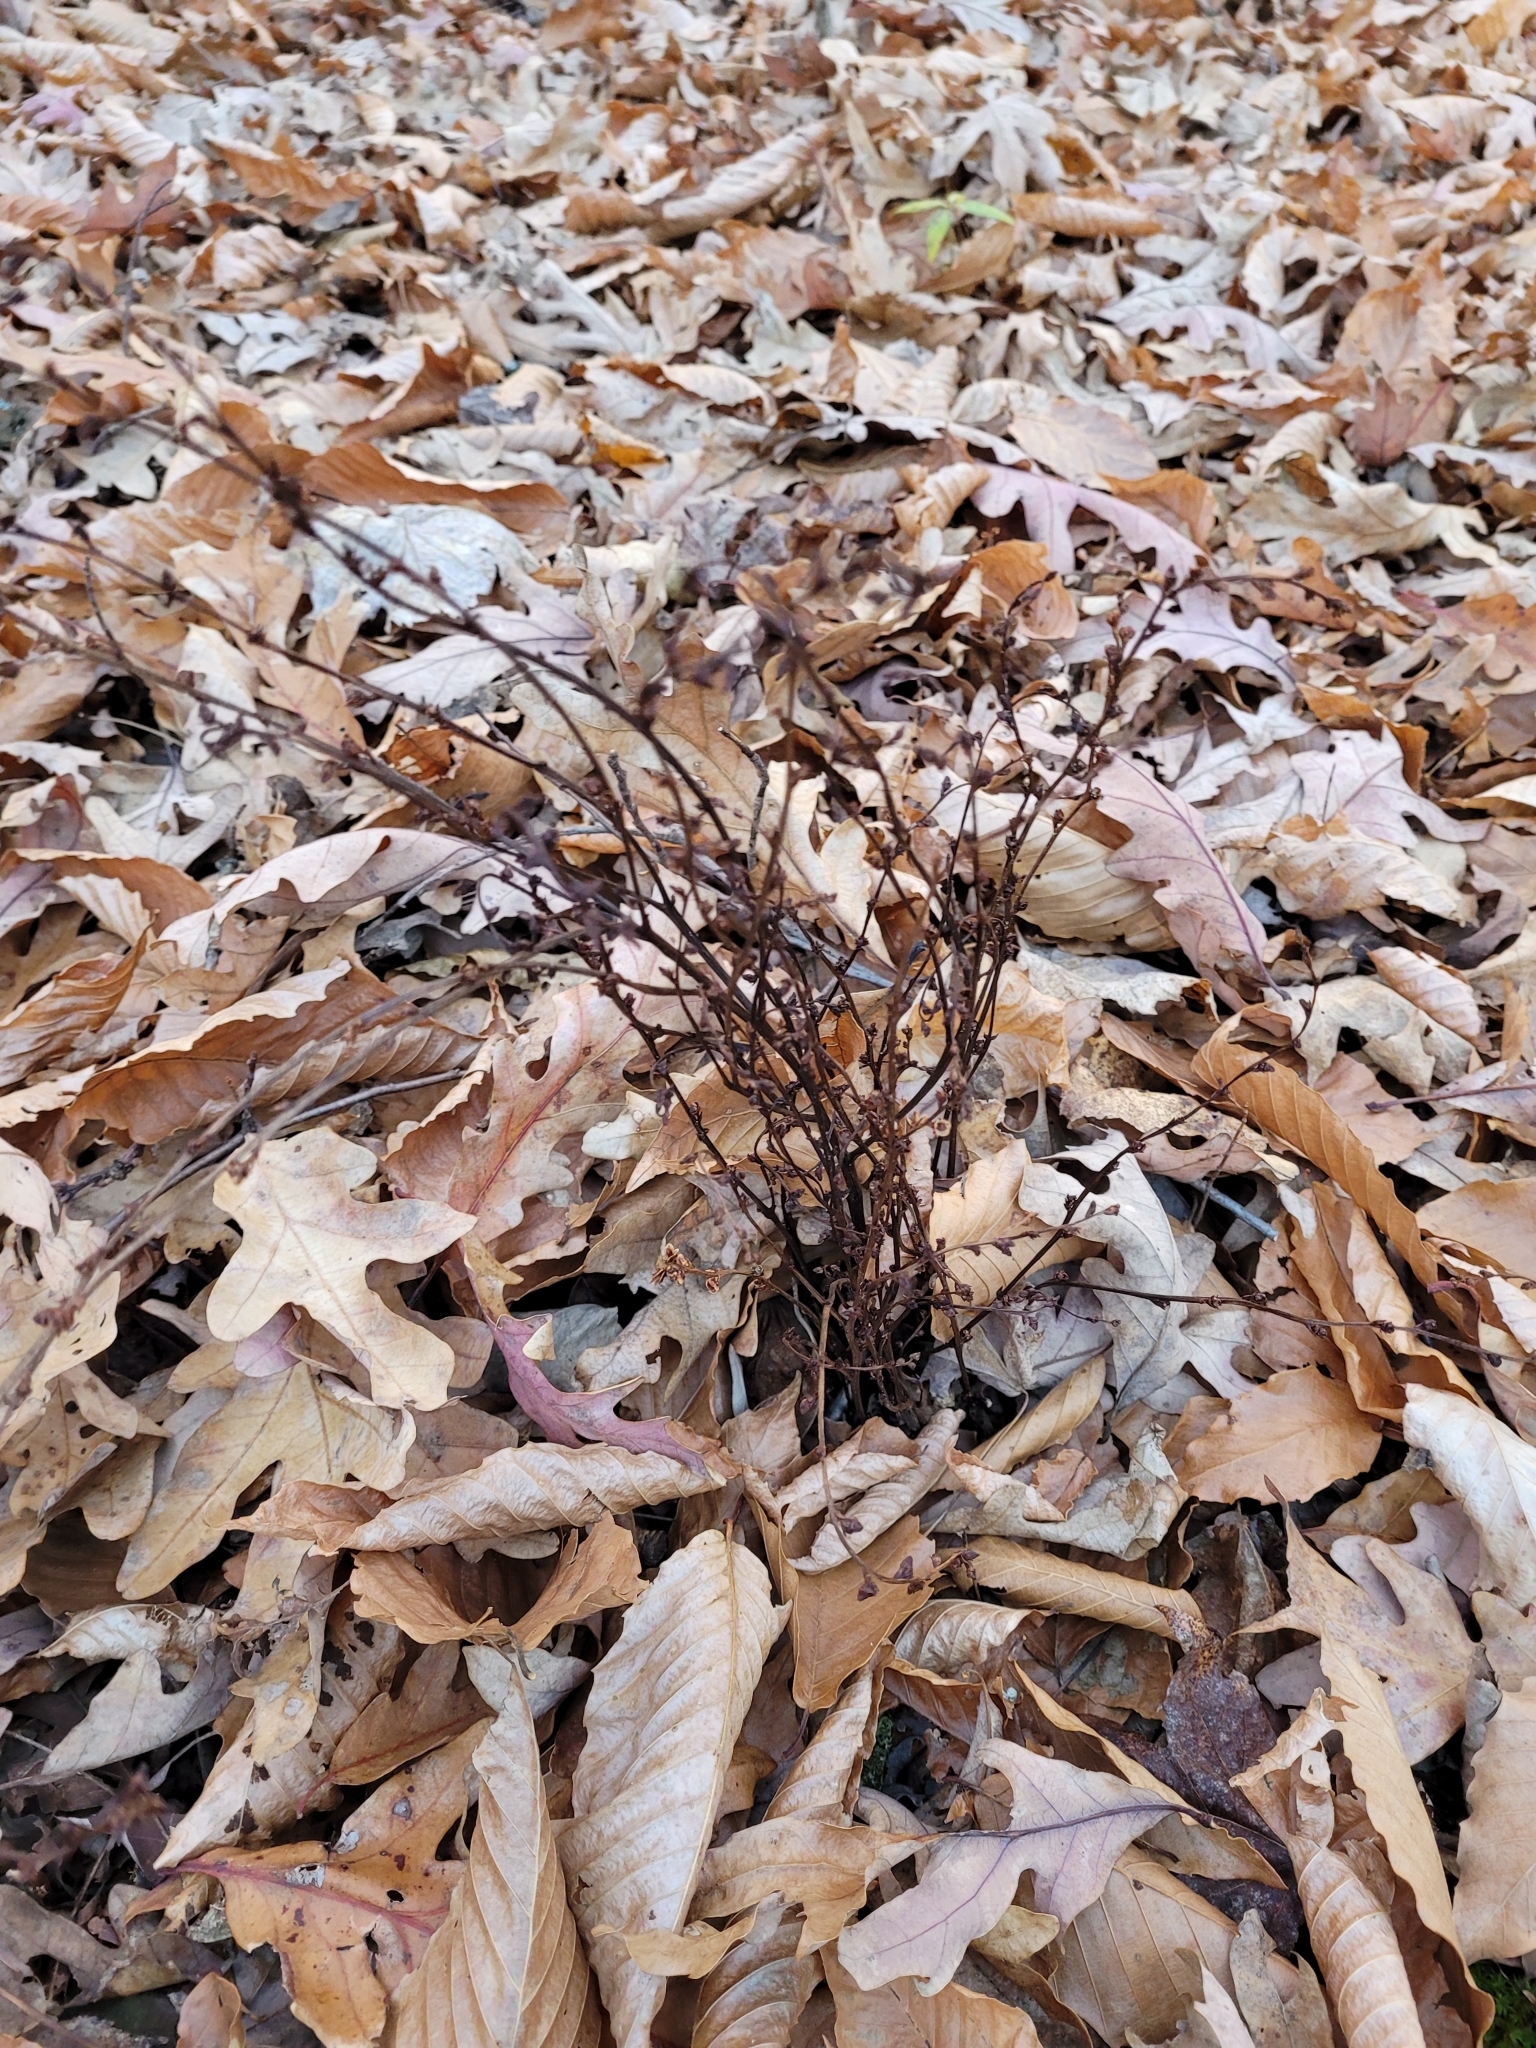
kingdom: Plantae
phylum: Tracheophyta
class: Magnoliopsida
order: Lamiales
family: Orobanchaceae
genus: Epifagus
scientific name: Epifagus virginiana
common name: Beechdrops
